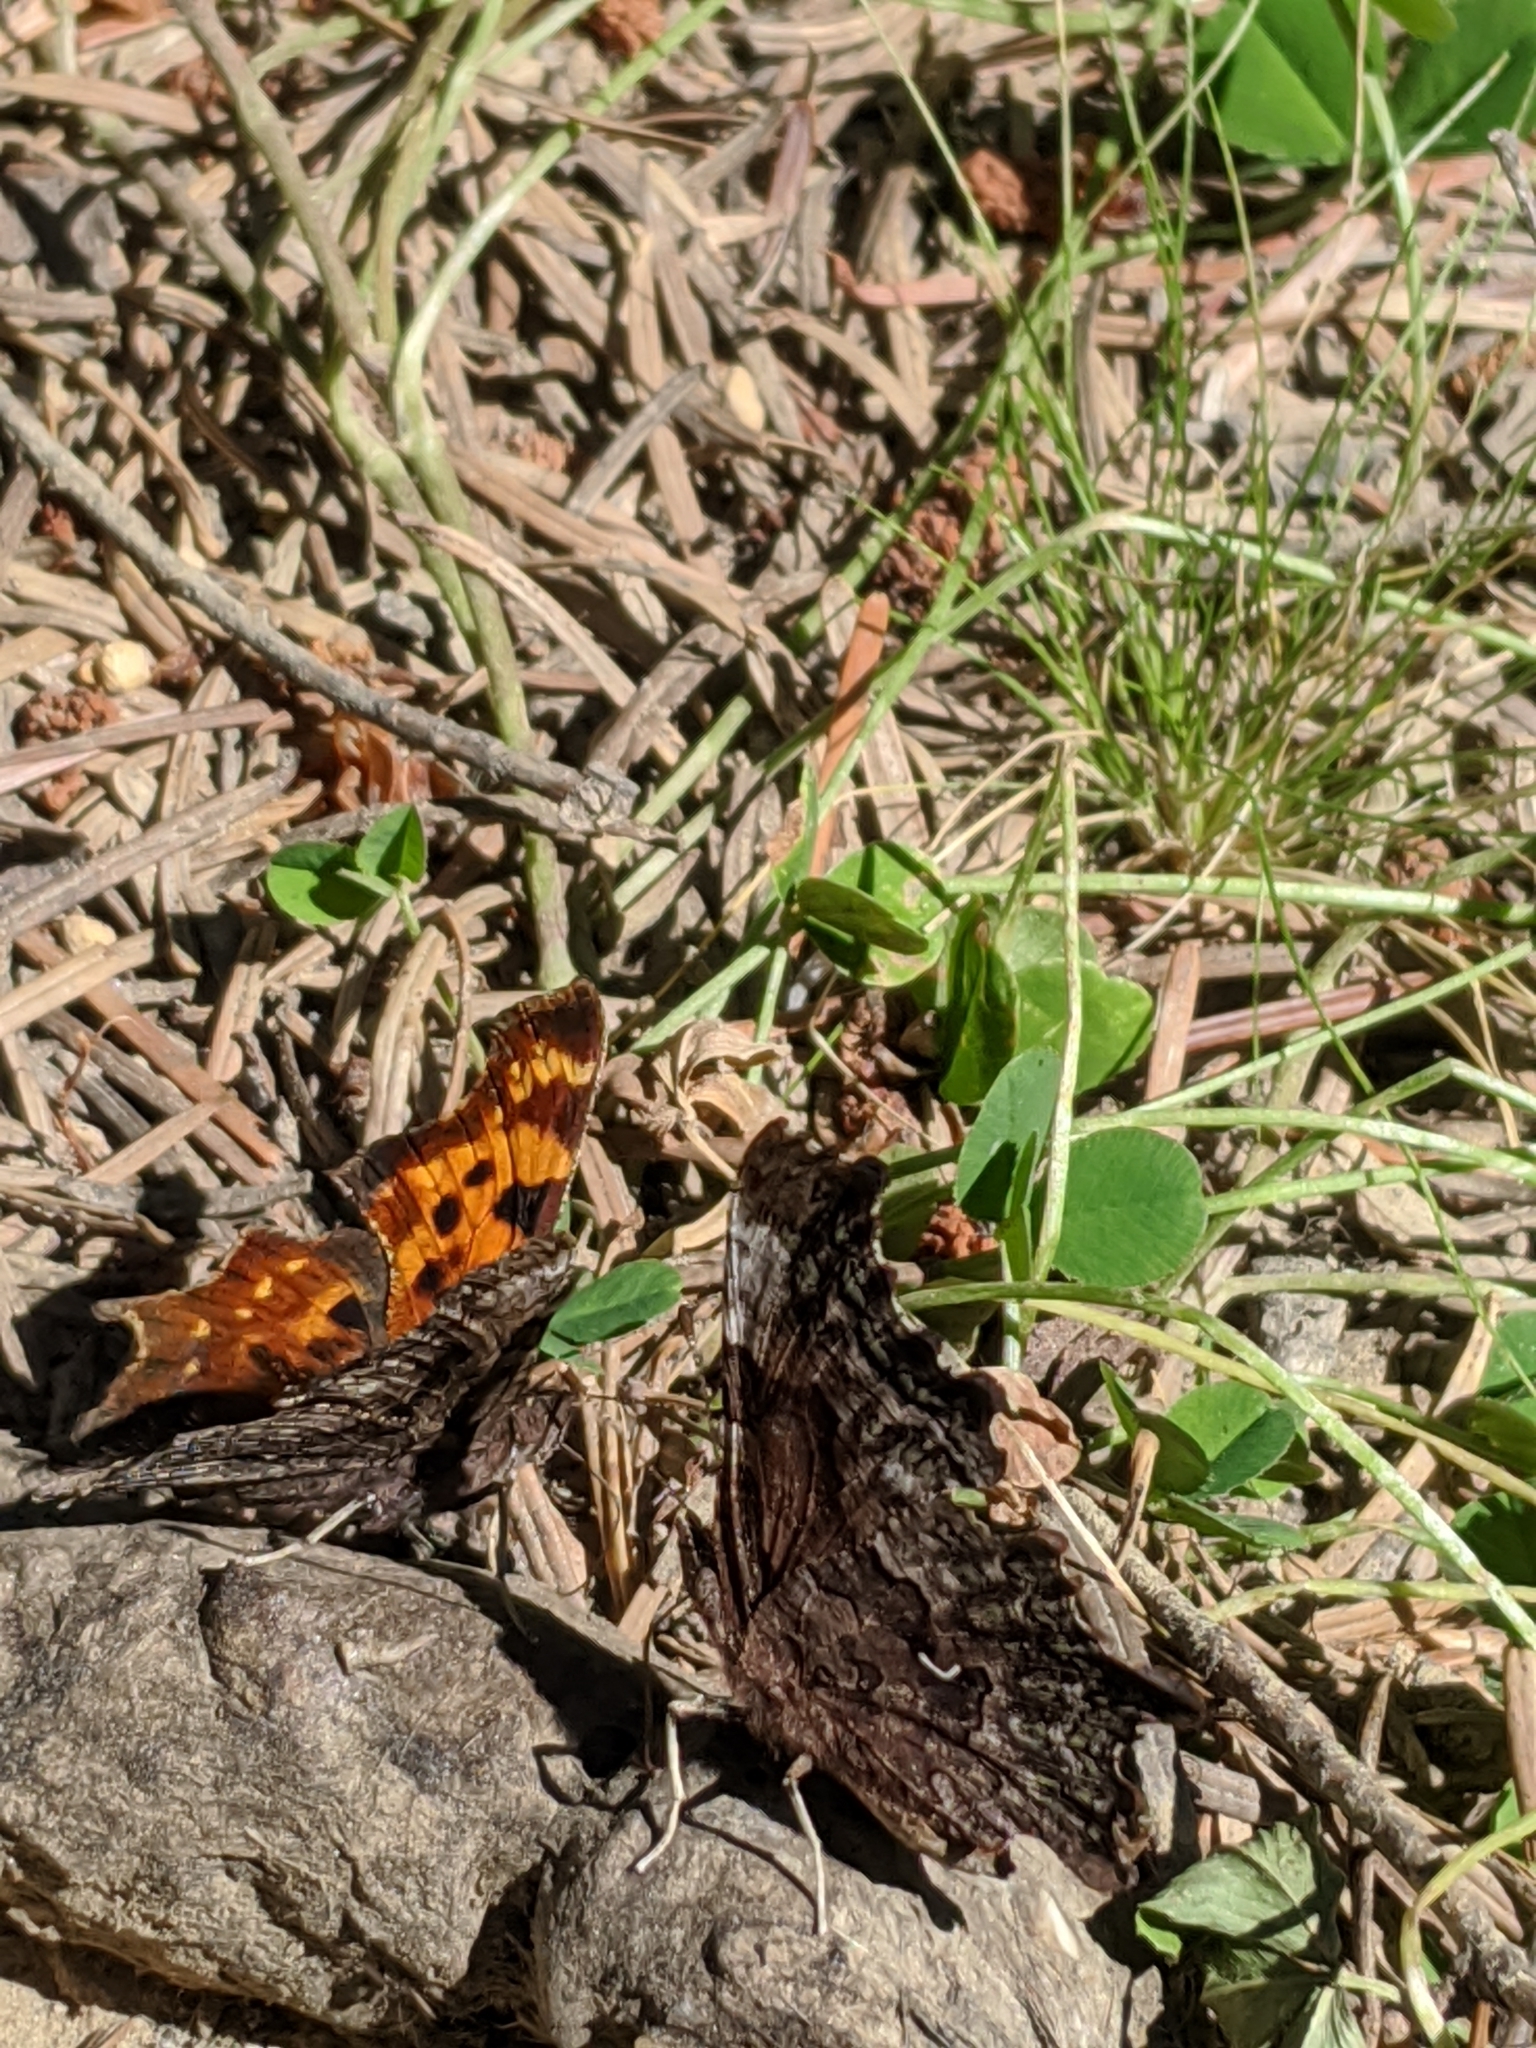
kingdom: Animalia
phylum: Arthropoda
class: Insecta
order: Lepidoptera
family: Nymphalidae
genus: Polygonia
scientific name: Polygonia faunus
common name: Green comma
